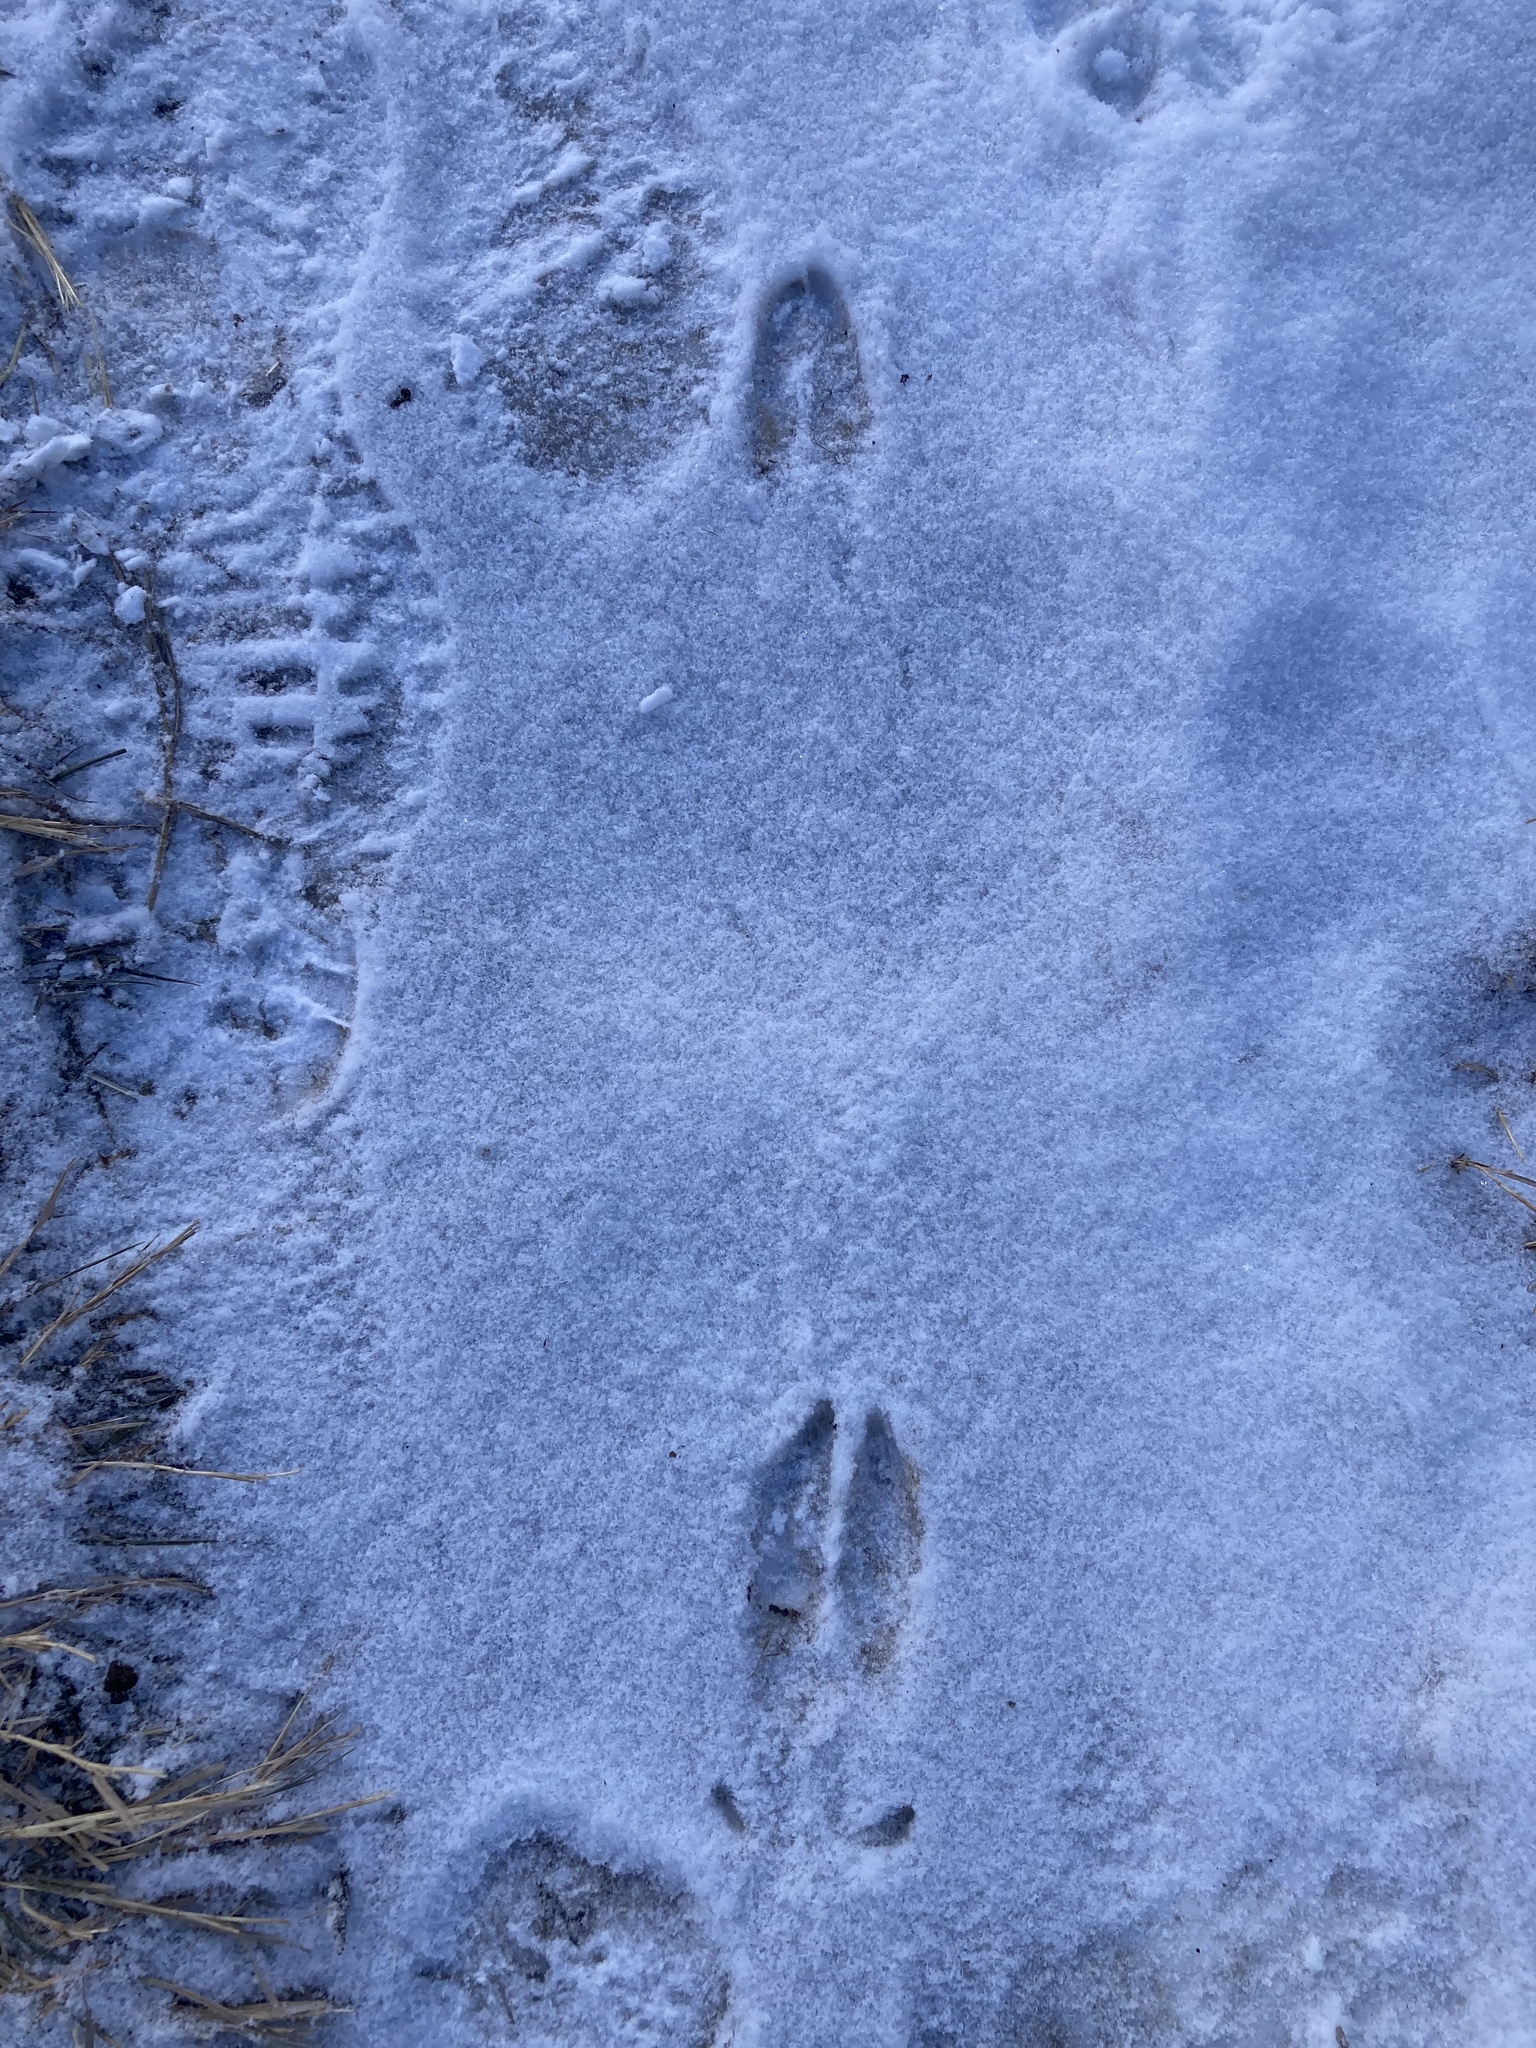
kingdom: Animalia
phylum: Chordata
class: Mammalia
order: Artiodactyla
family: Cervidae
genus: Odocoileus
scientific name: Odocoileus hemionus
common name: Mule deer
